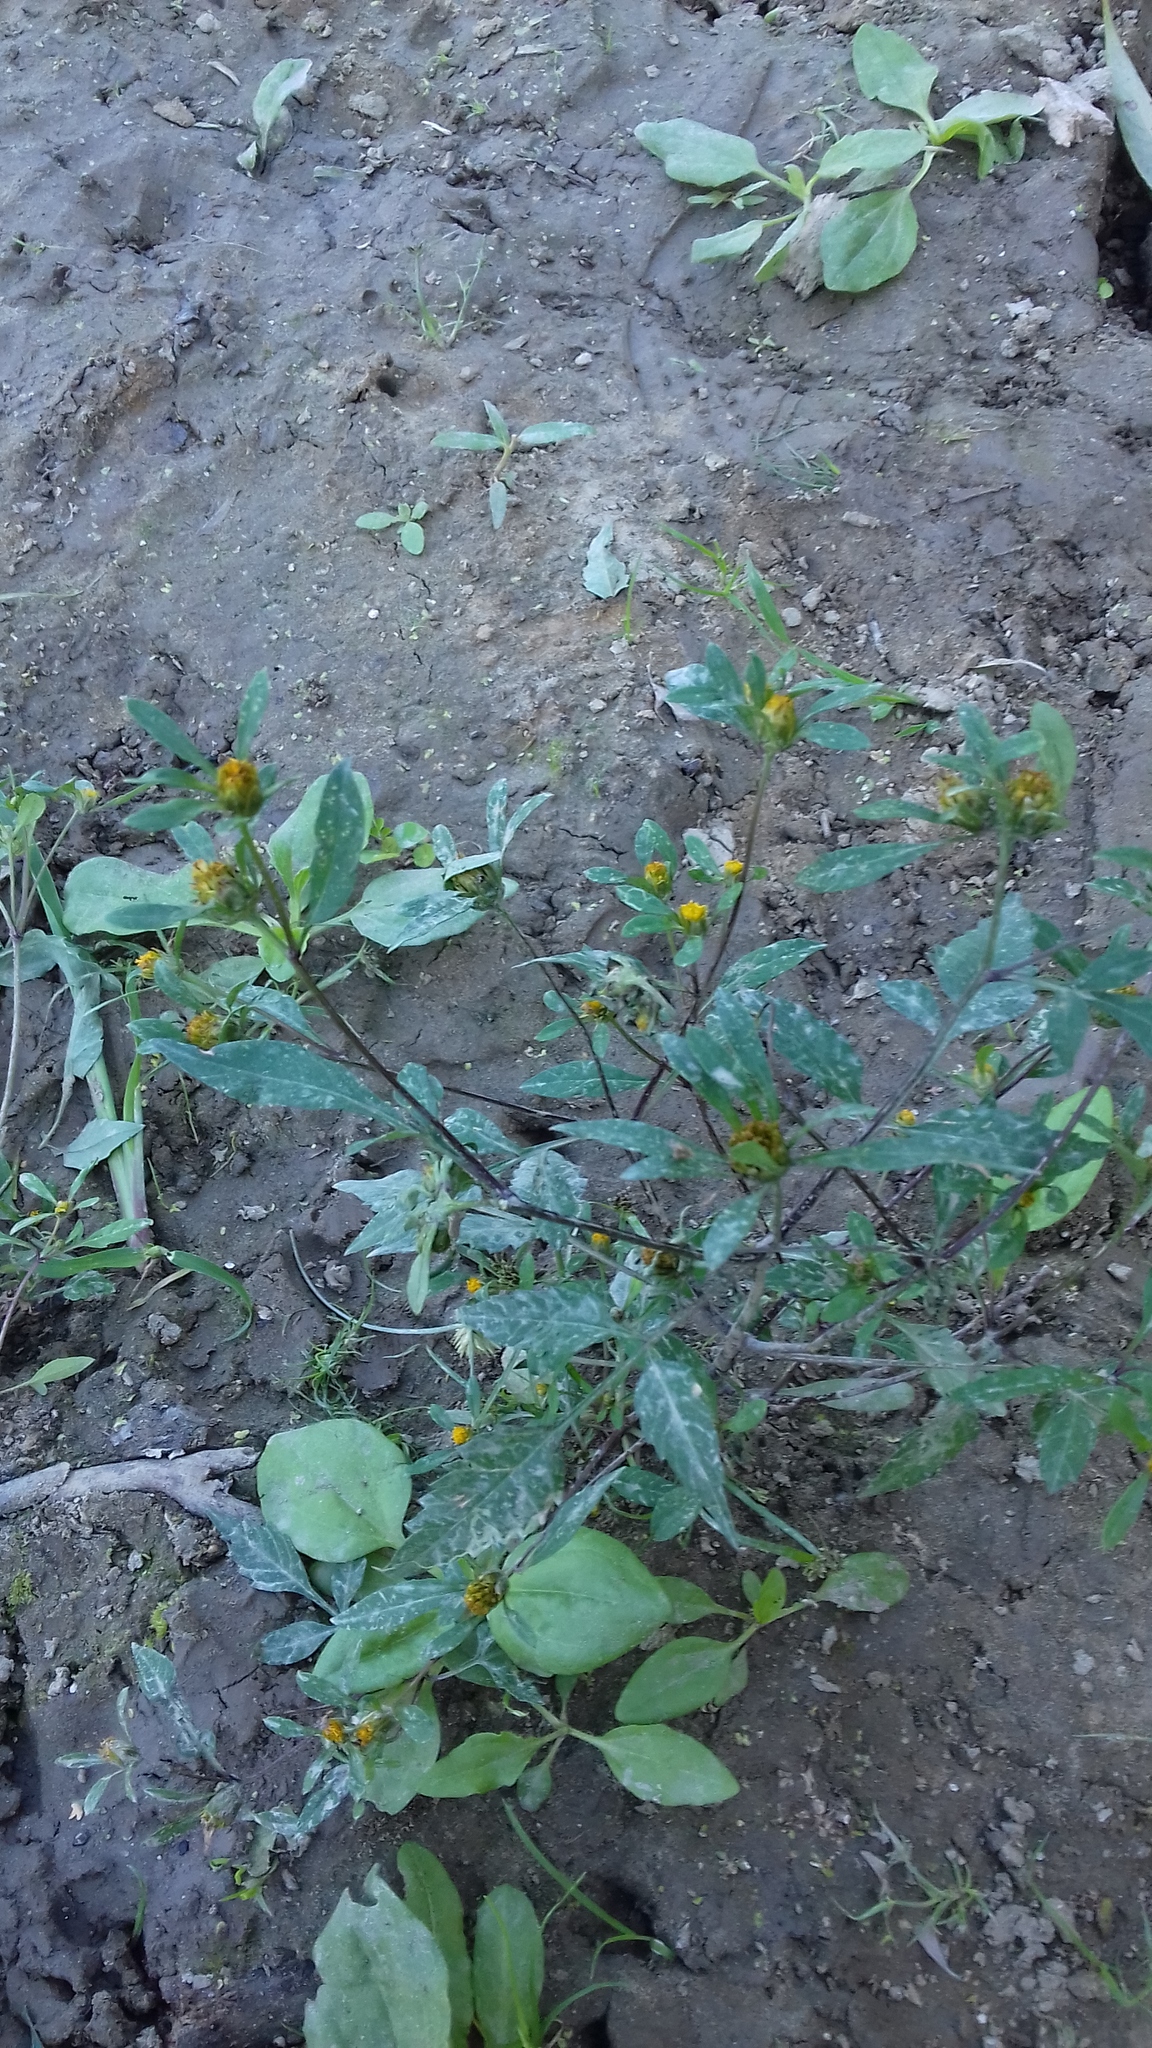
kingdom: Plantae
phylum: Tracheophyta
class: Magnoliopsida
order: Asterales
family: Asteraceae
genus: Bidens
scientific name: Bidens frondosa
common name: Beggarticks
